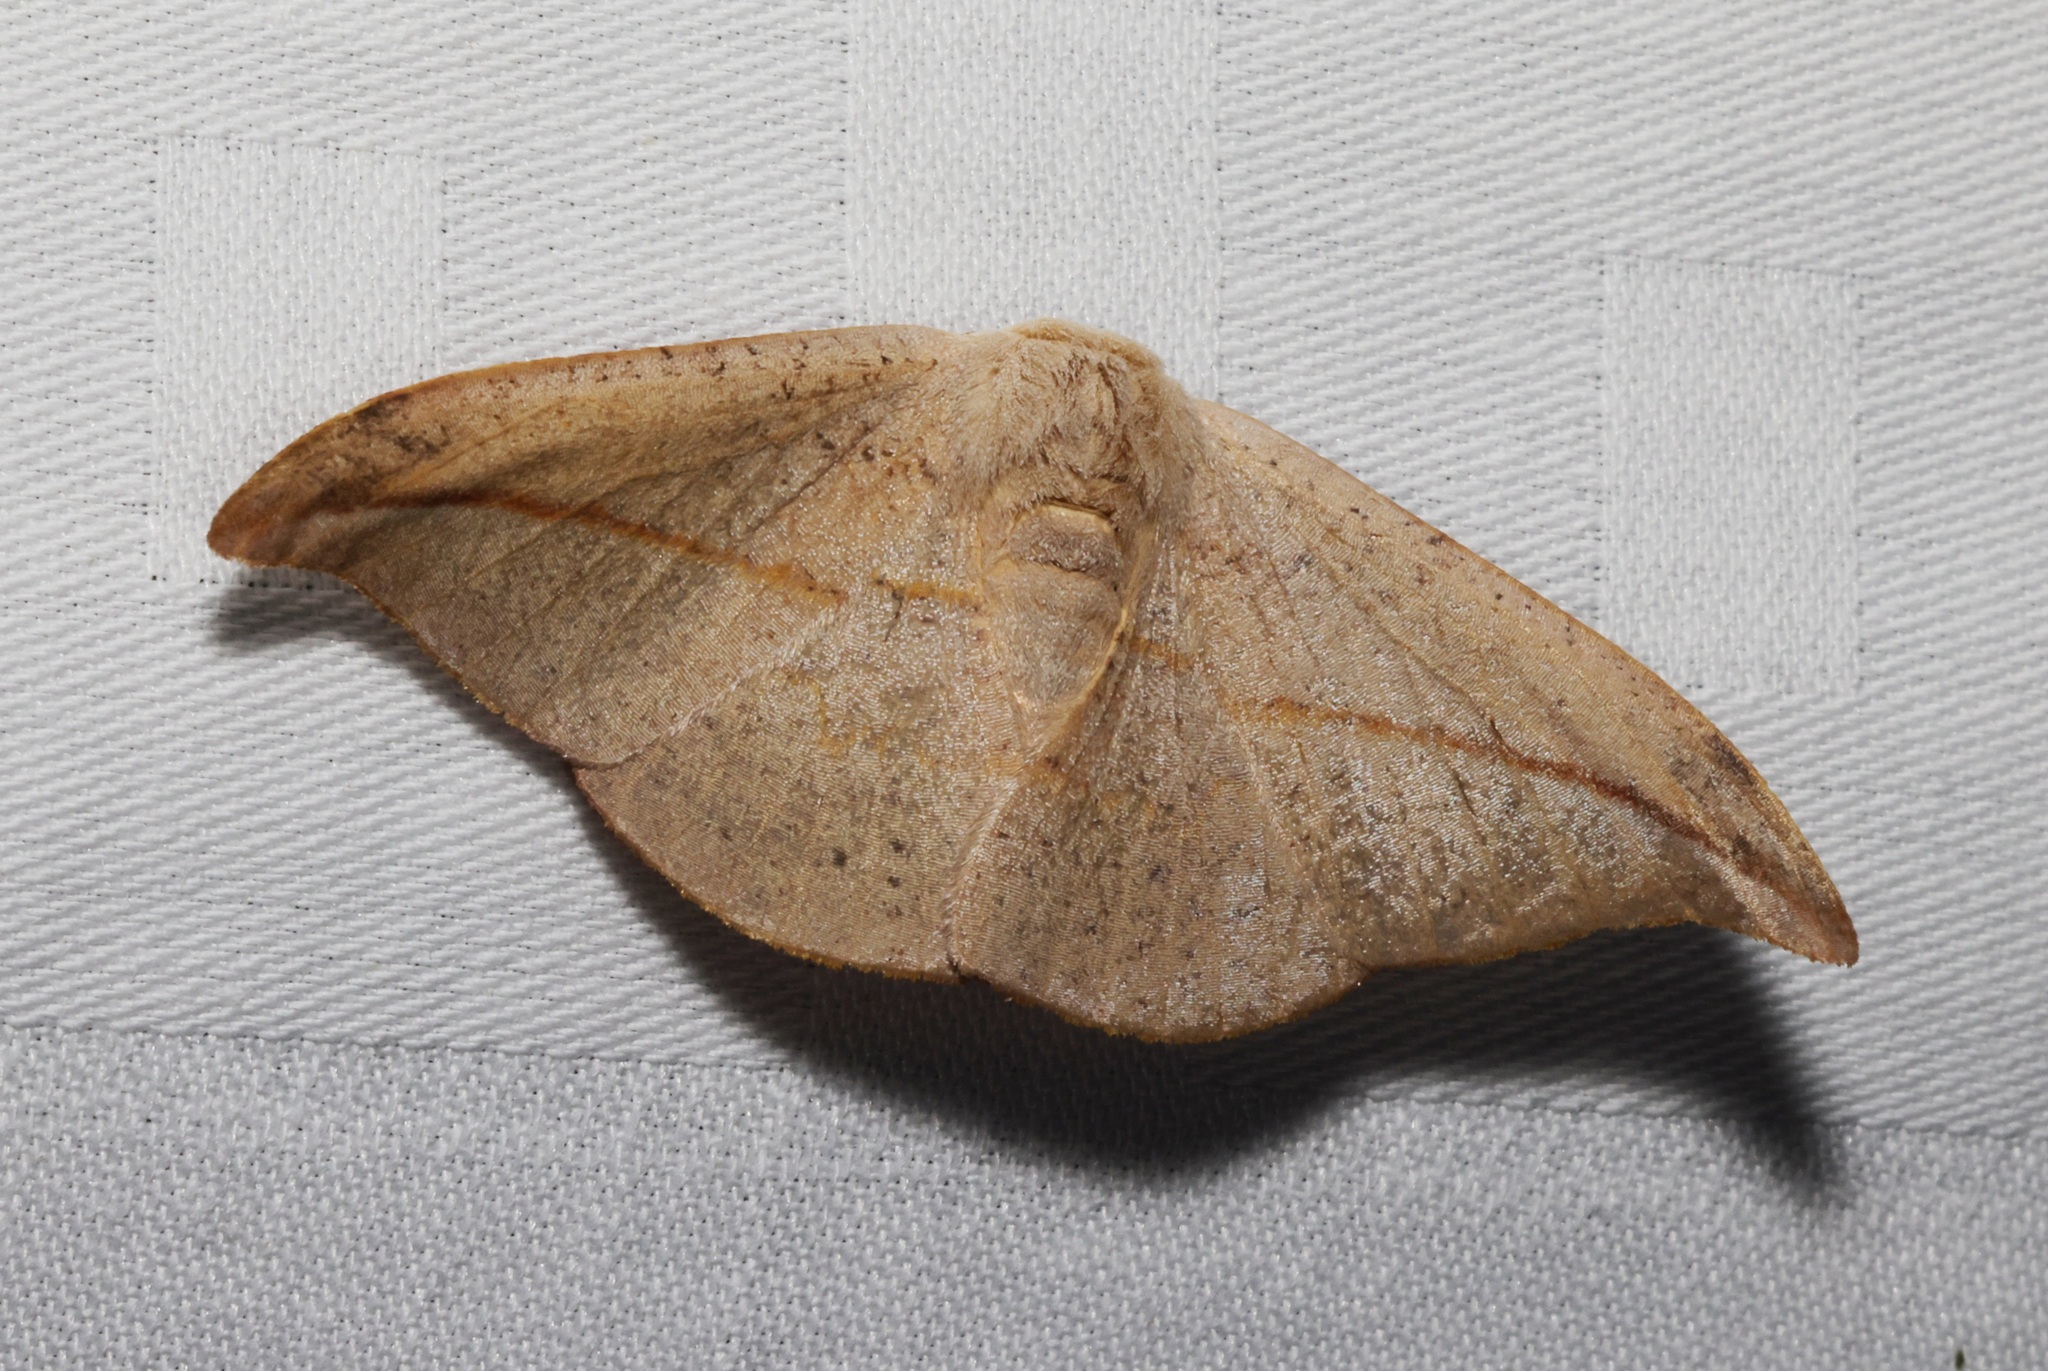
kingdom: Animalia
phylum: Arthropoda
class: Insecta
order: Lepidoptera
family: Drepanidae
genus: Oreta
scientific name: Oreta insignis
